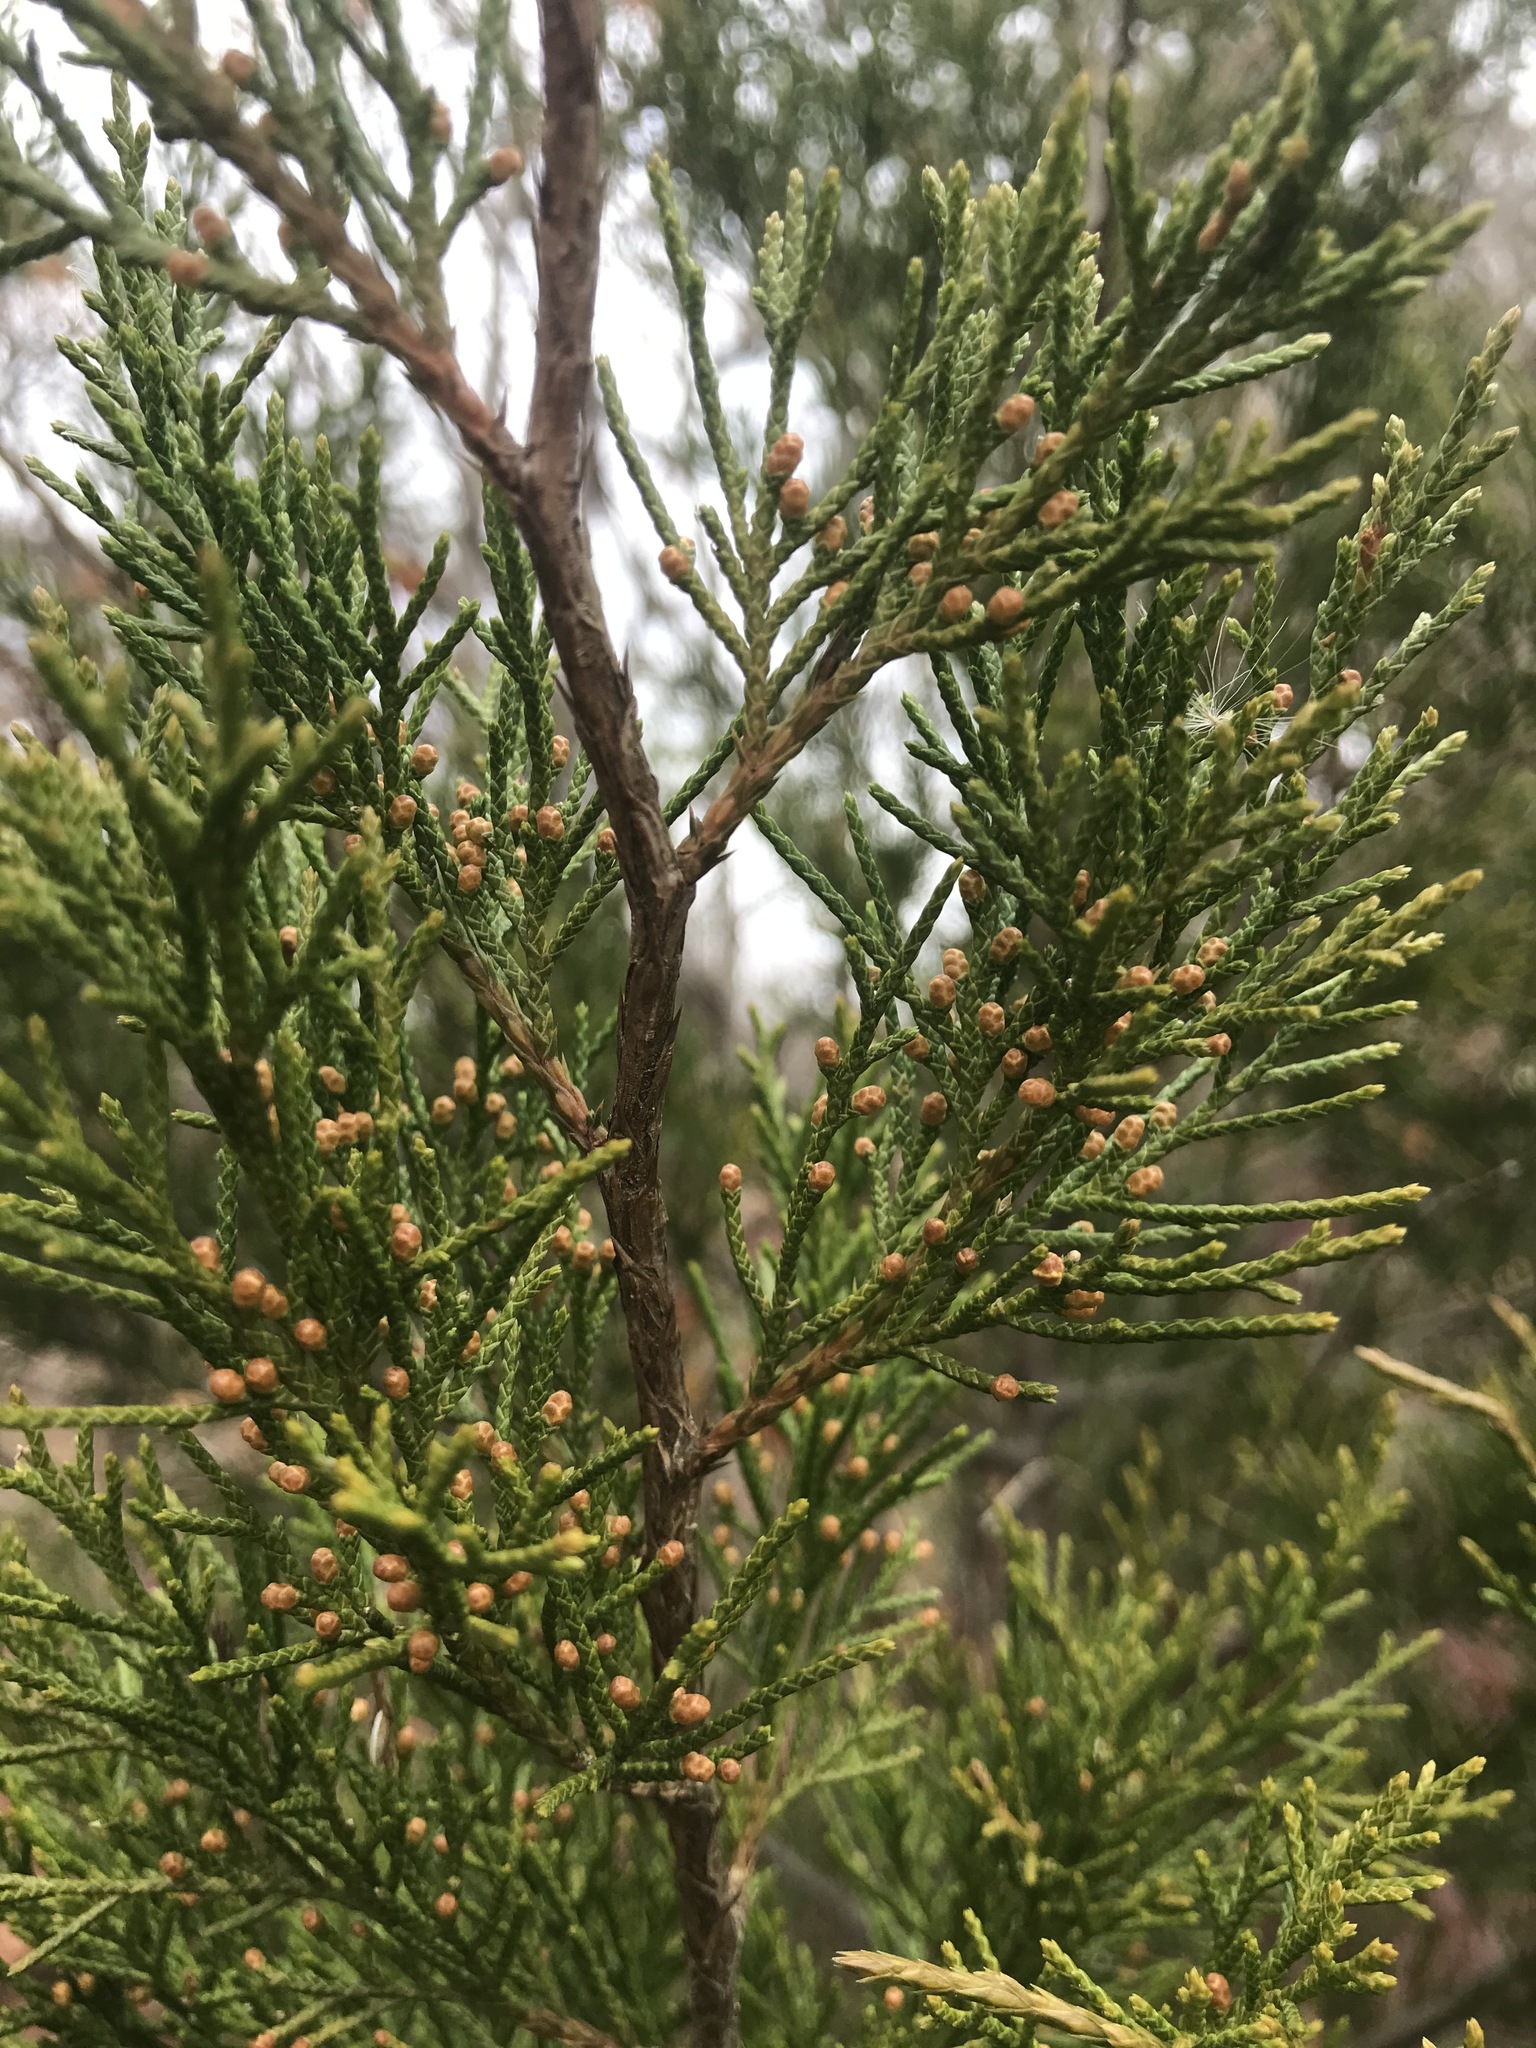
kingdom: Plantae
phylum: Tracheophyta
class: Pinopsida
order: Pinales
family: Cupressaceae
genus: Juniperus
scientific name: Juniperus virginiana
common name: Red juniper
